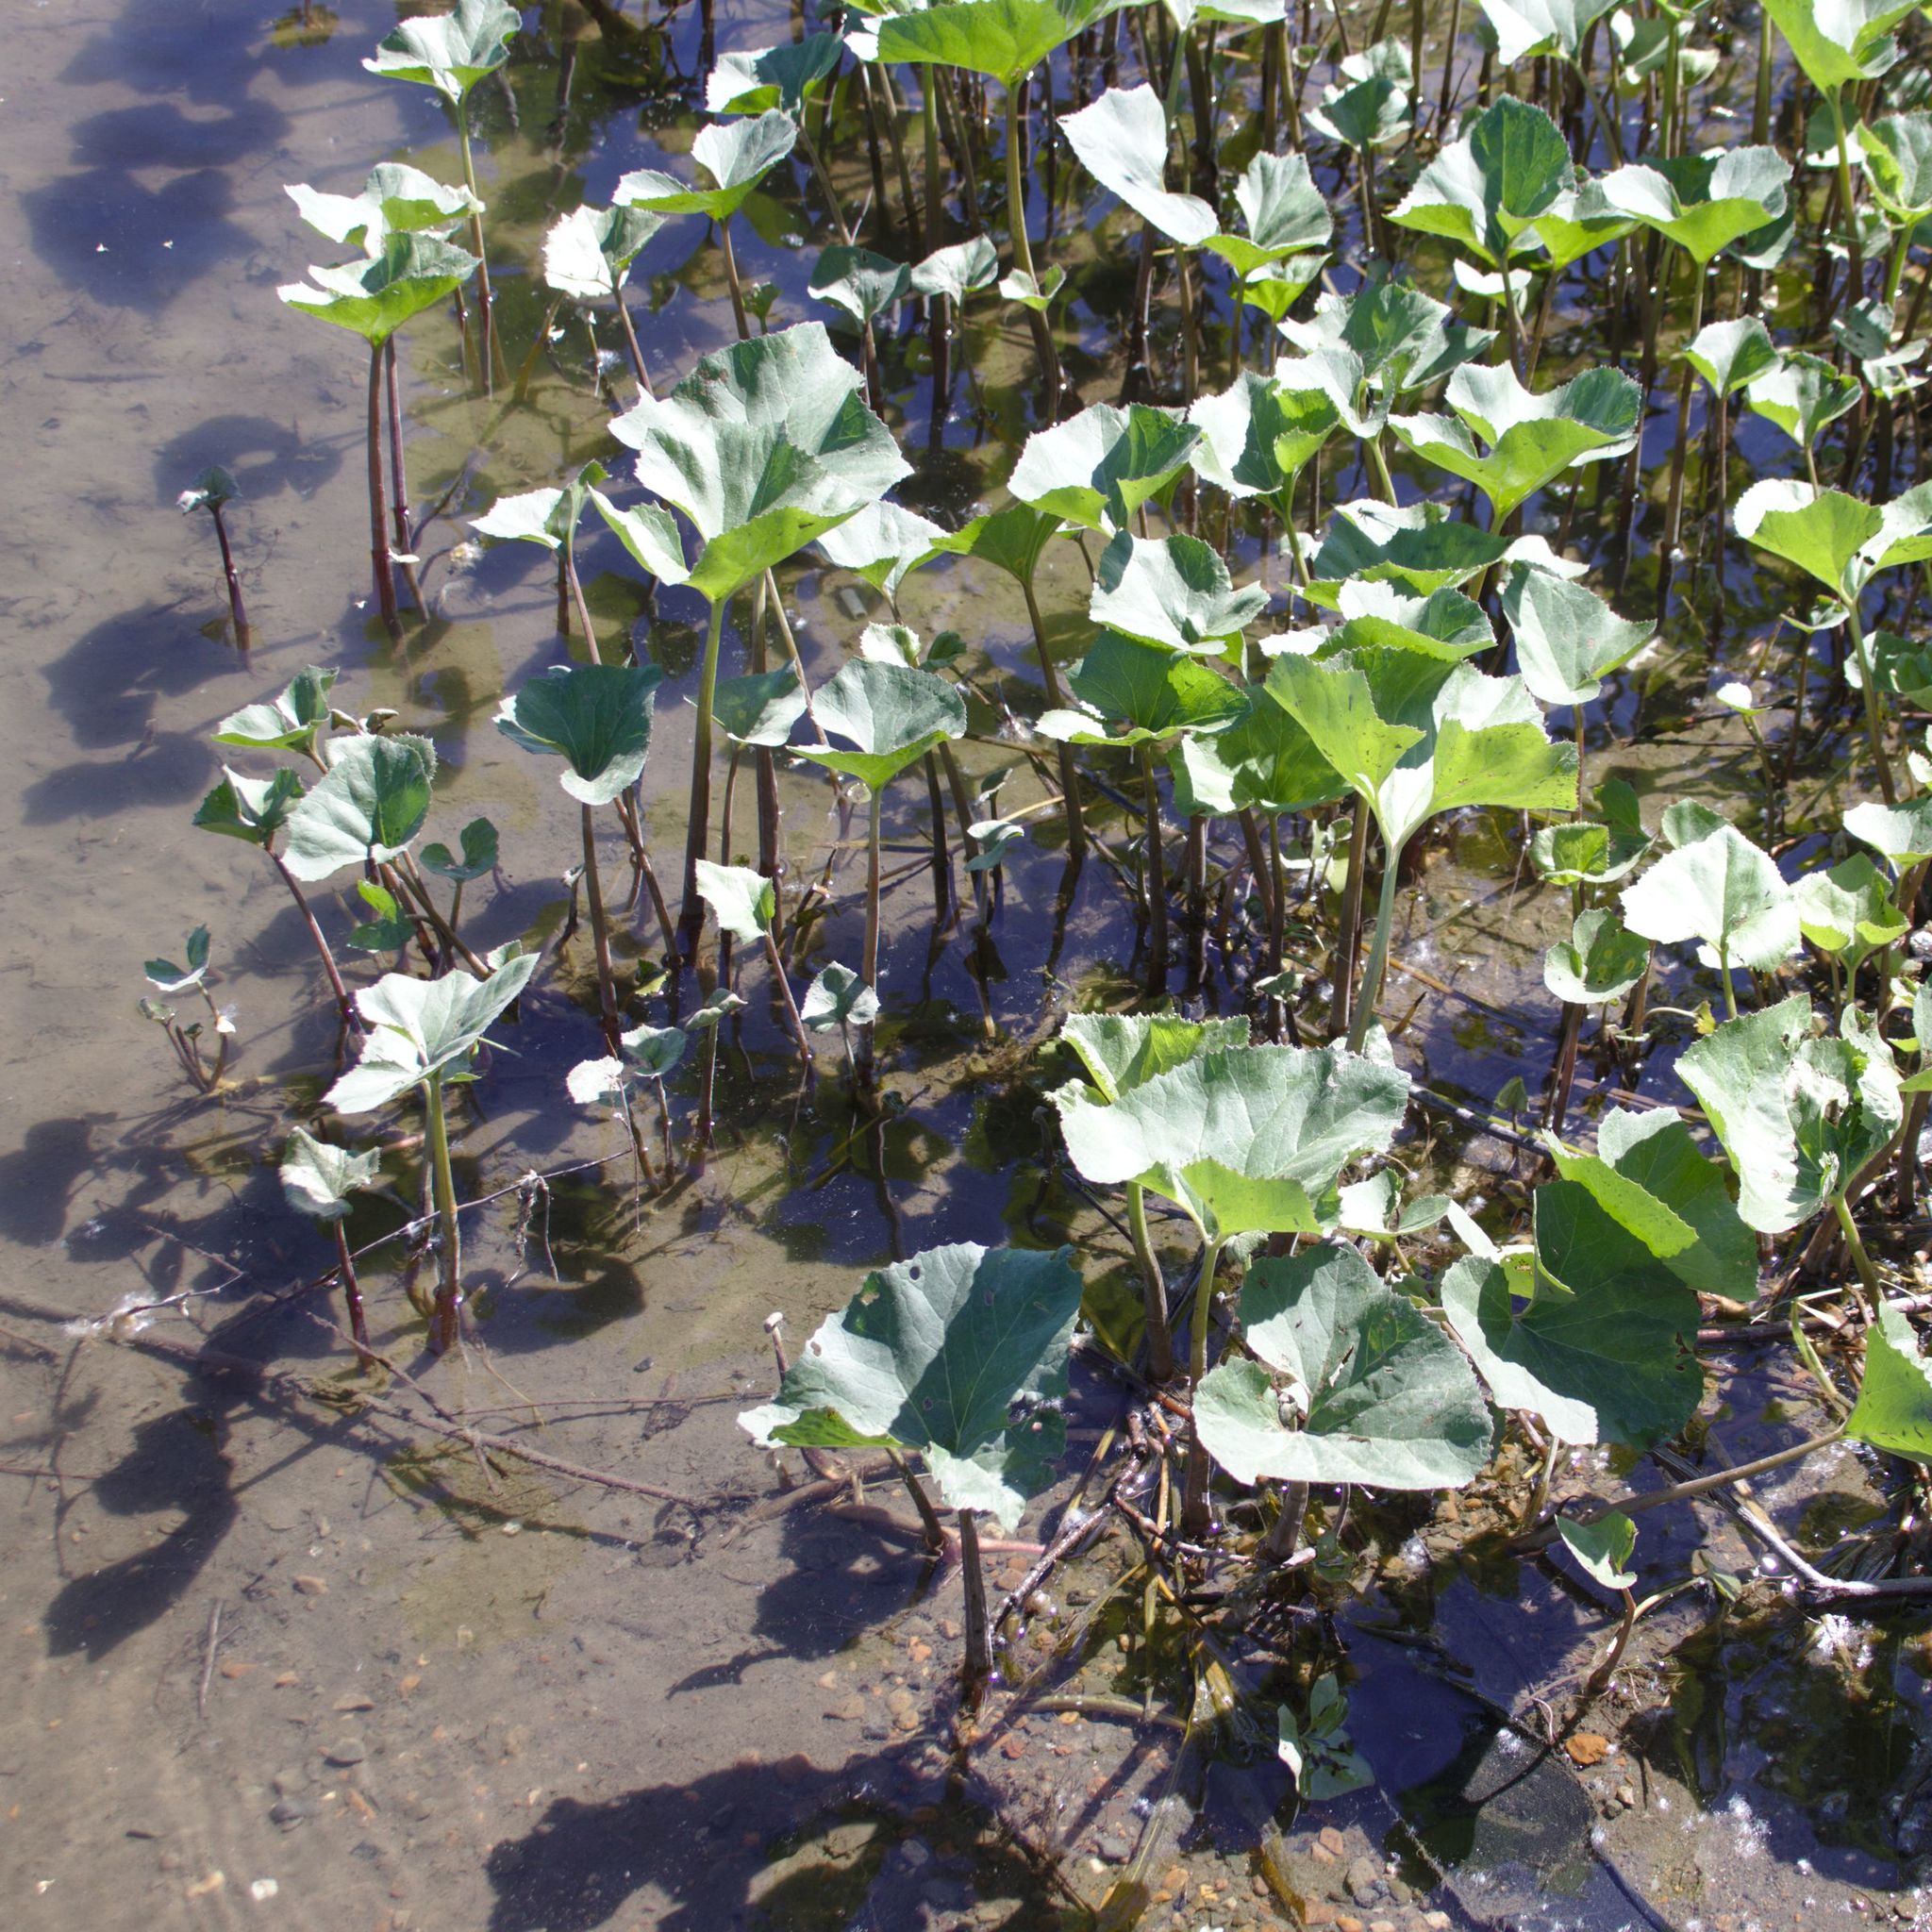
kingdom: Plantae
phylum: Tracheophyta
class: Magnoliopsida
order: Asterales
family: Asteraceae
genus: Petasites
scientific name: Petasites radiatus
